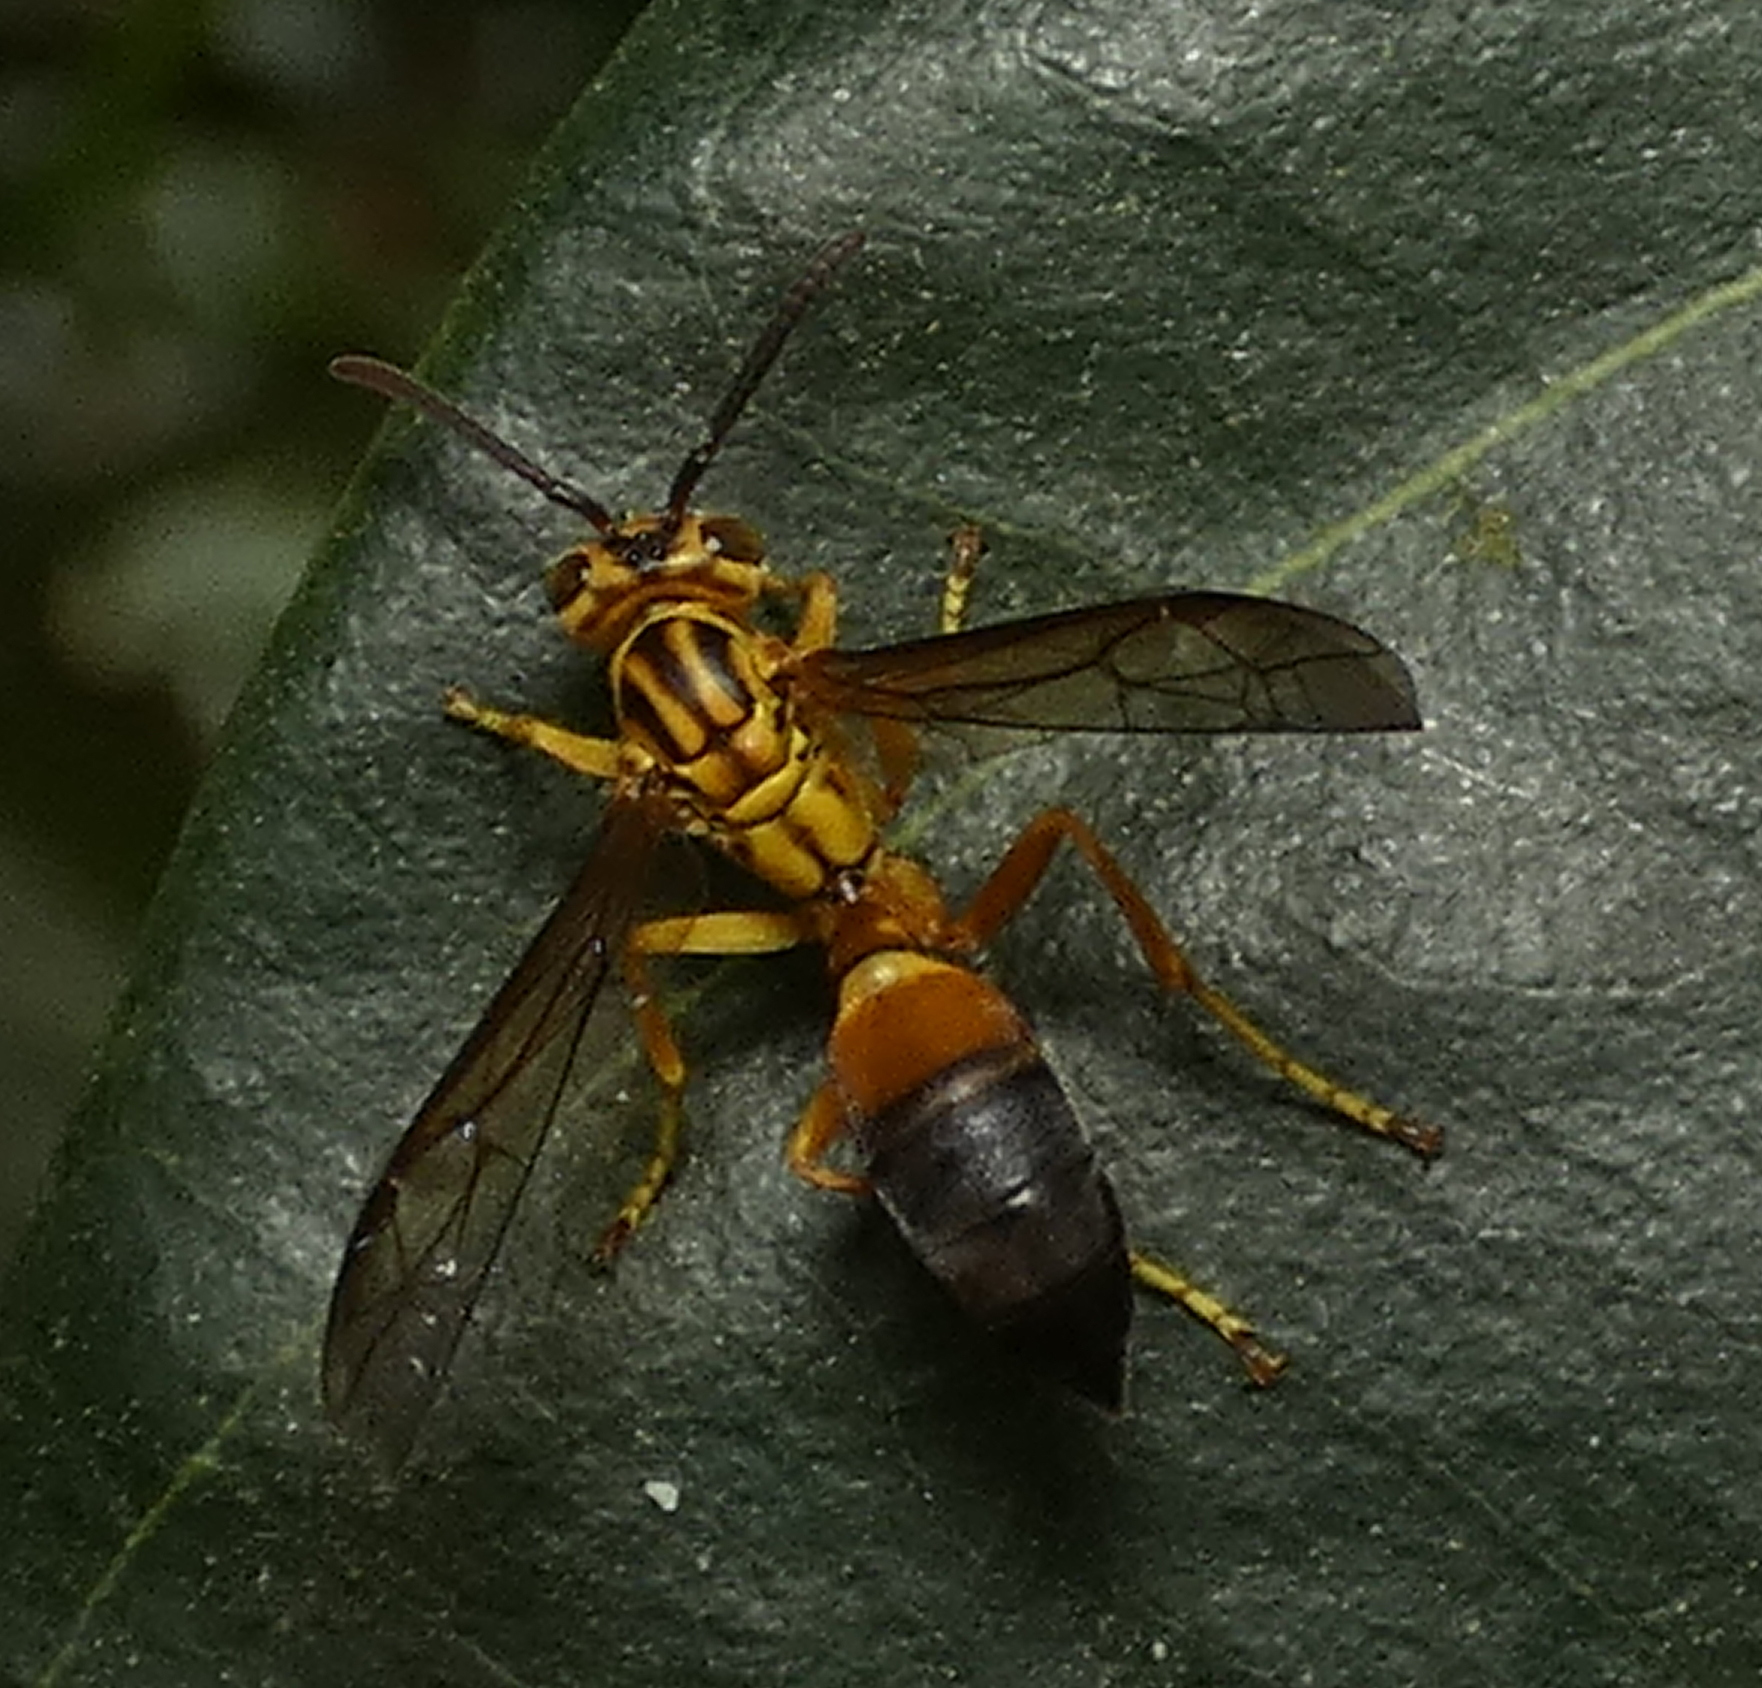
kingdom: Animalia
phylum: Arthropoda
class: Insecta
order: Hymenoptera
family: Vespidae
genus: Agelaia
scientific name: Agelaia pallipes
